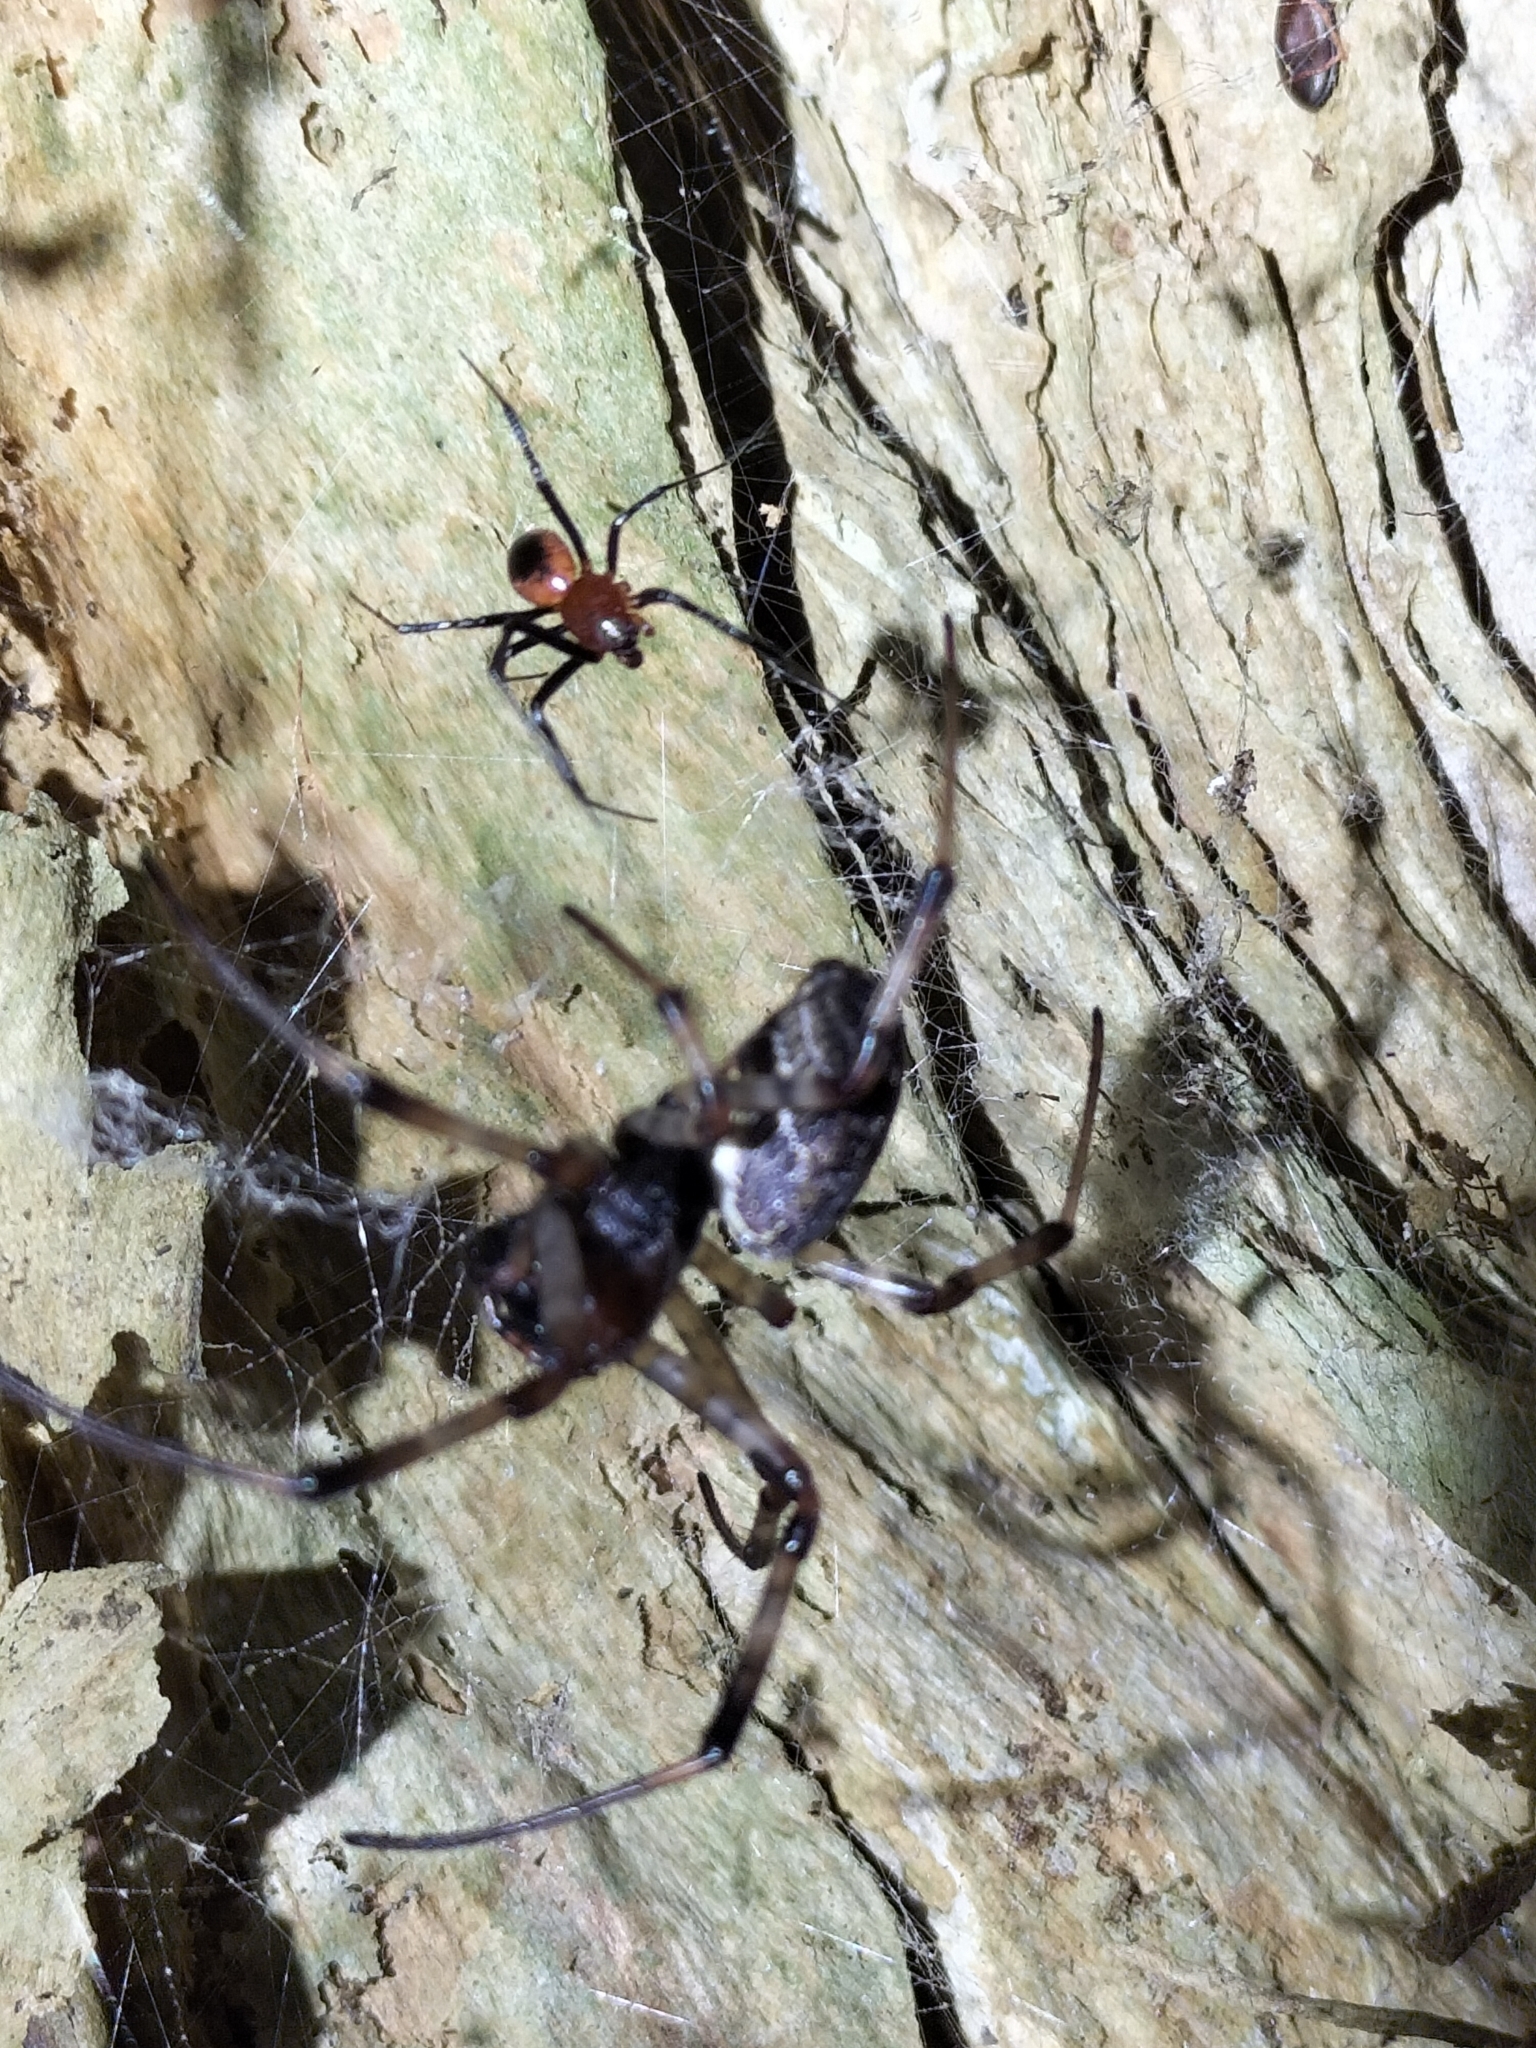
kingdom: Animalia
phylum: Arthropoda
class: Arachnida
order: Araneae
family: Araneidae
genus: Nephilengys
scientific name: Nephilengys papuana
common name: Papuan hermit spider
